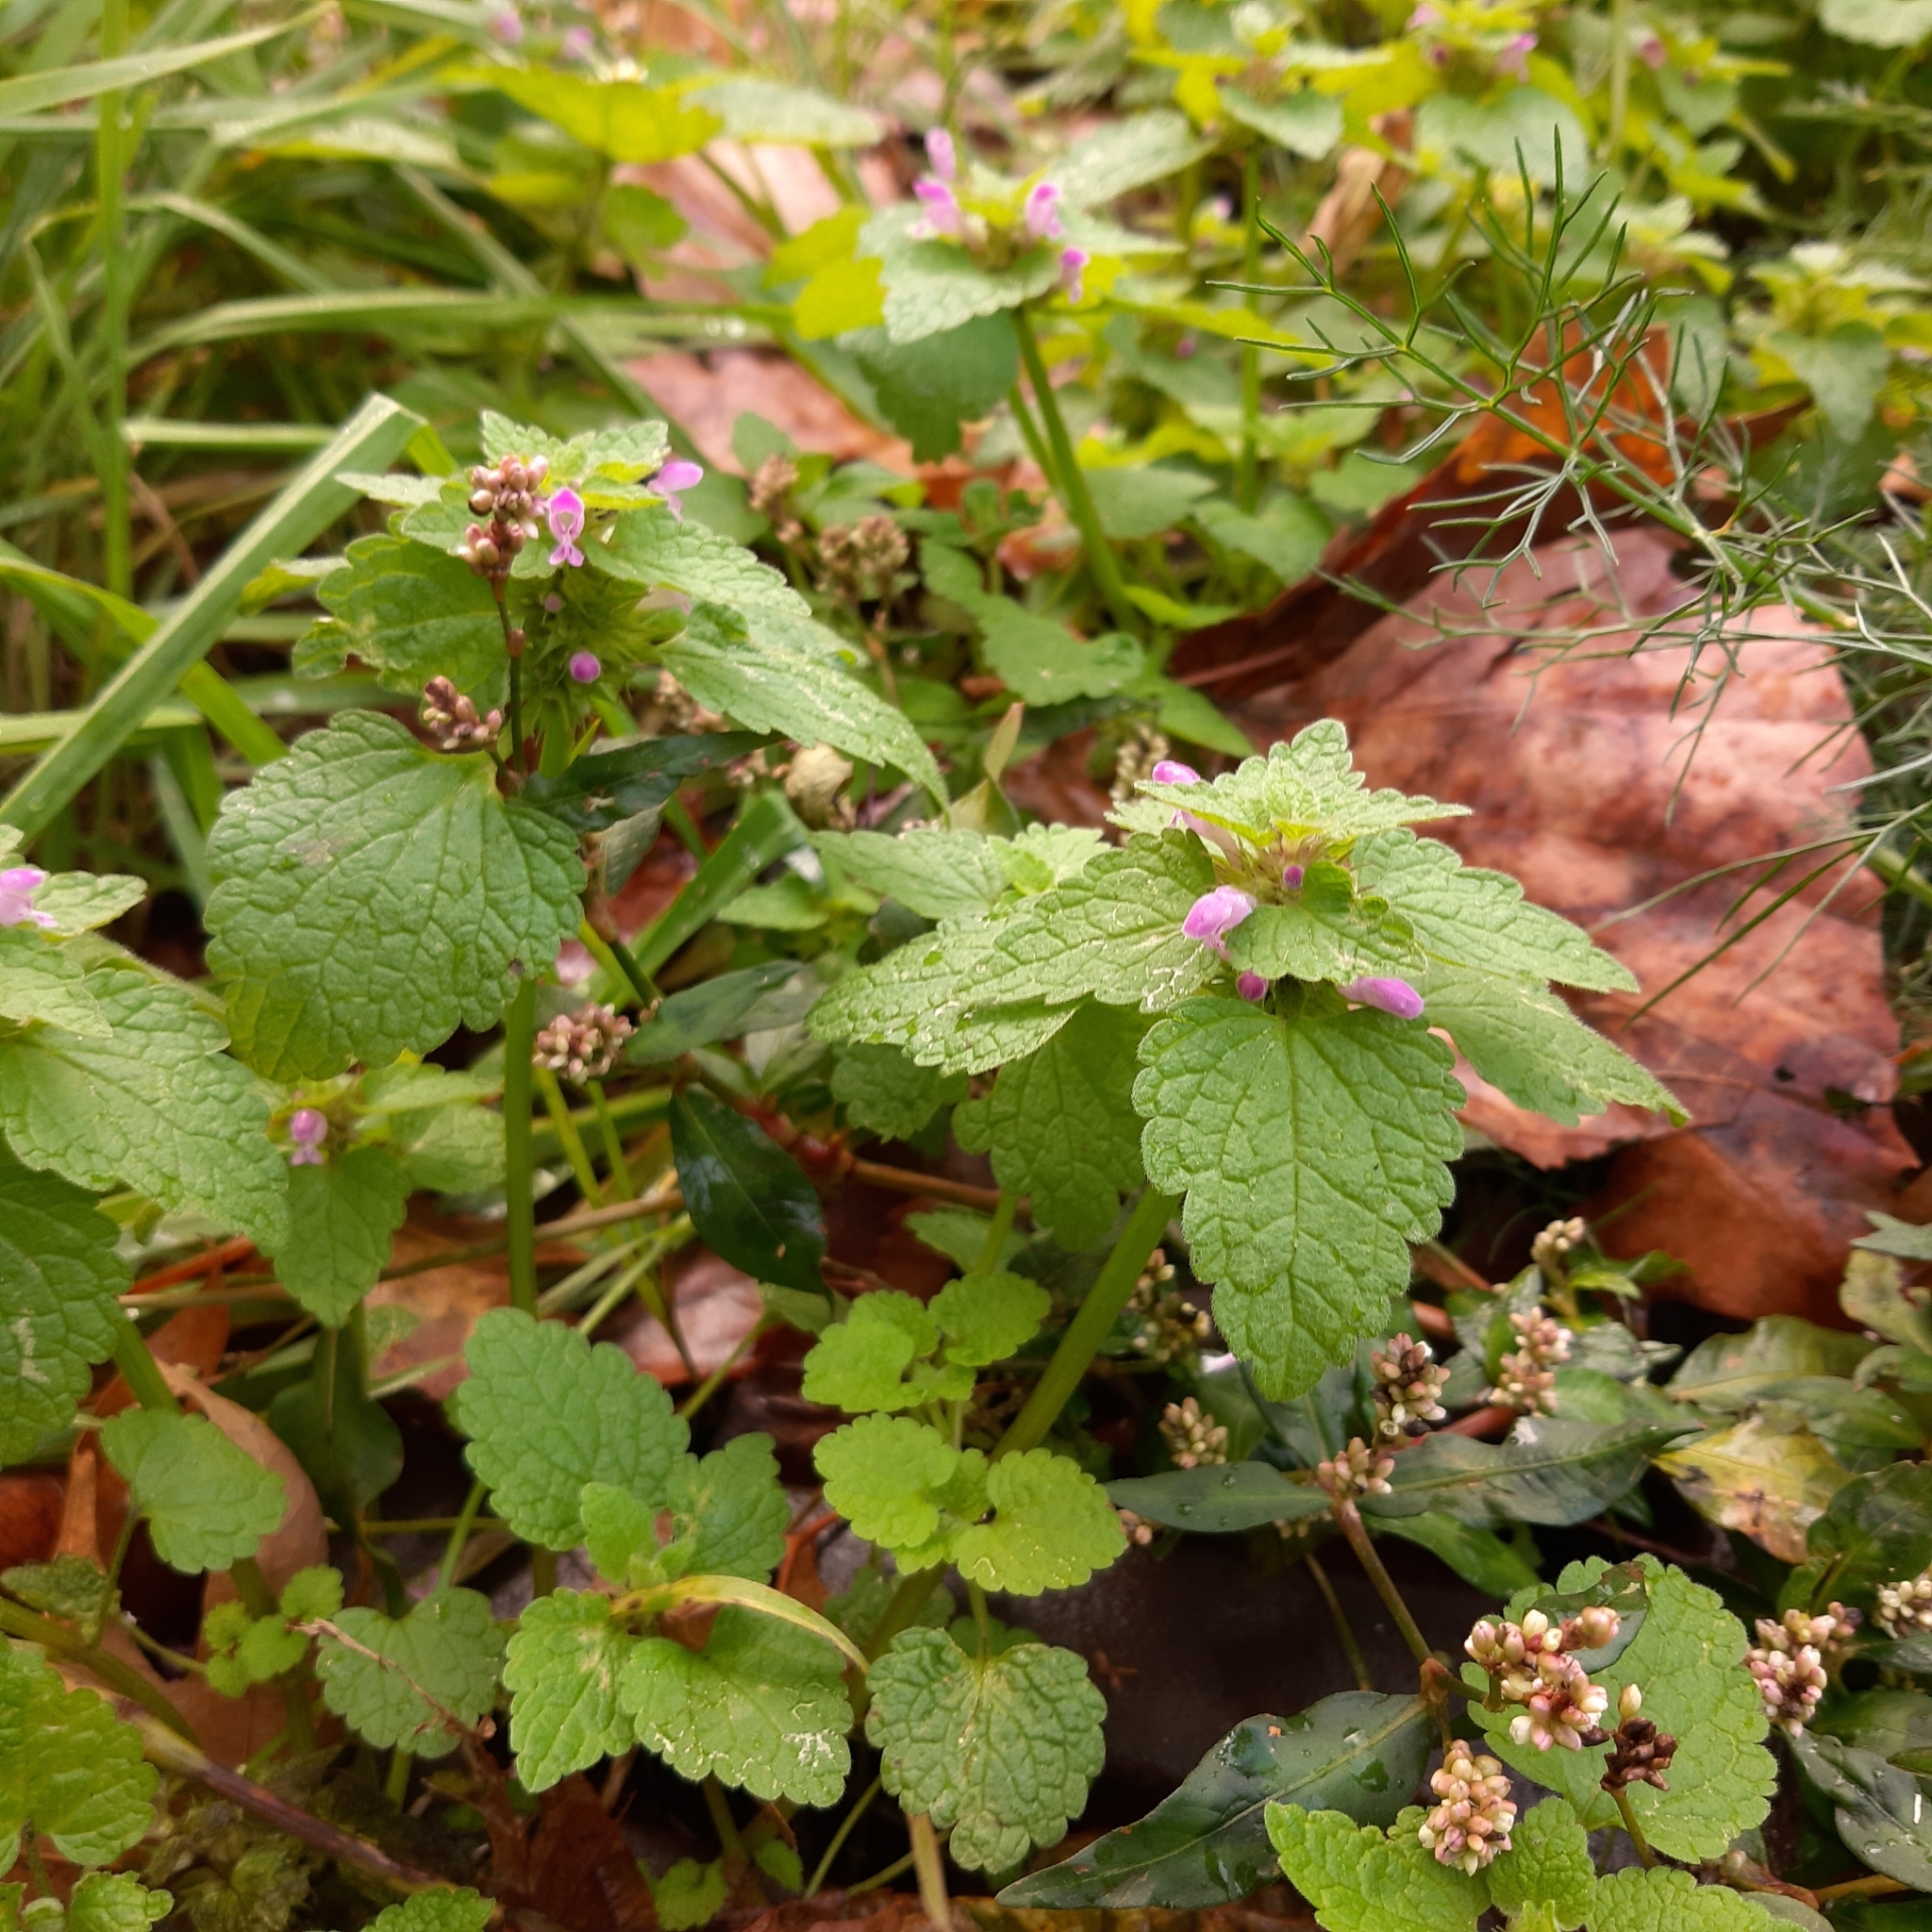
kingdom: Plantae
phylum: Tracheophyta
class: Magnoliopsida
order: Lamiales
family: Lamiaceae
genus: Lamium
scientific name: Lamium purpureum
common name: Red dead-nettle
